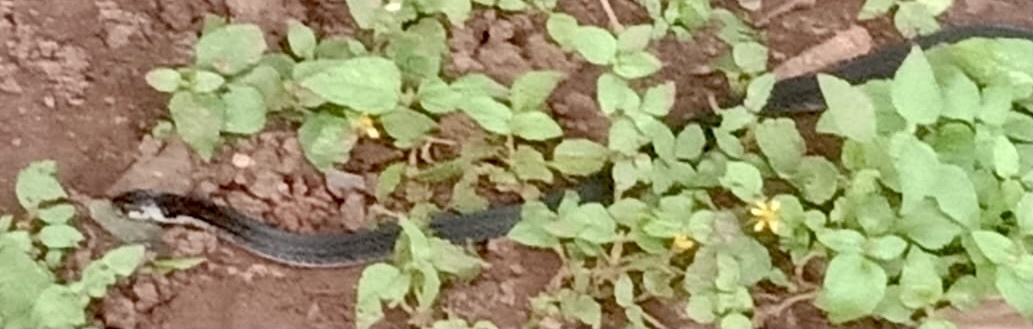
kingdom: Animalia
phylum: Chordata
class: Squamata
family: Elapidae
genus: Calliophis
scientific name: Calliophis nigrescens
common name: Black coral snake
